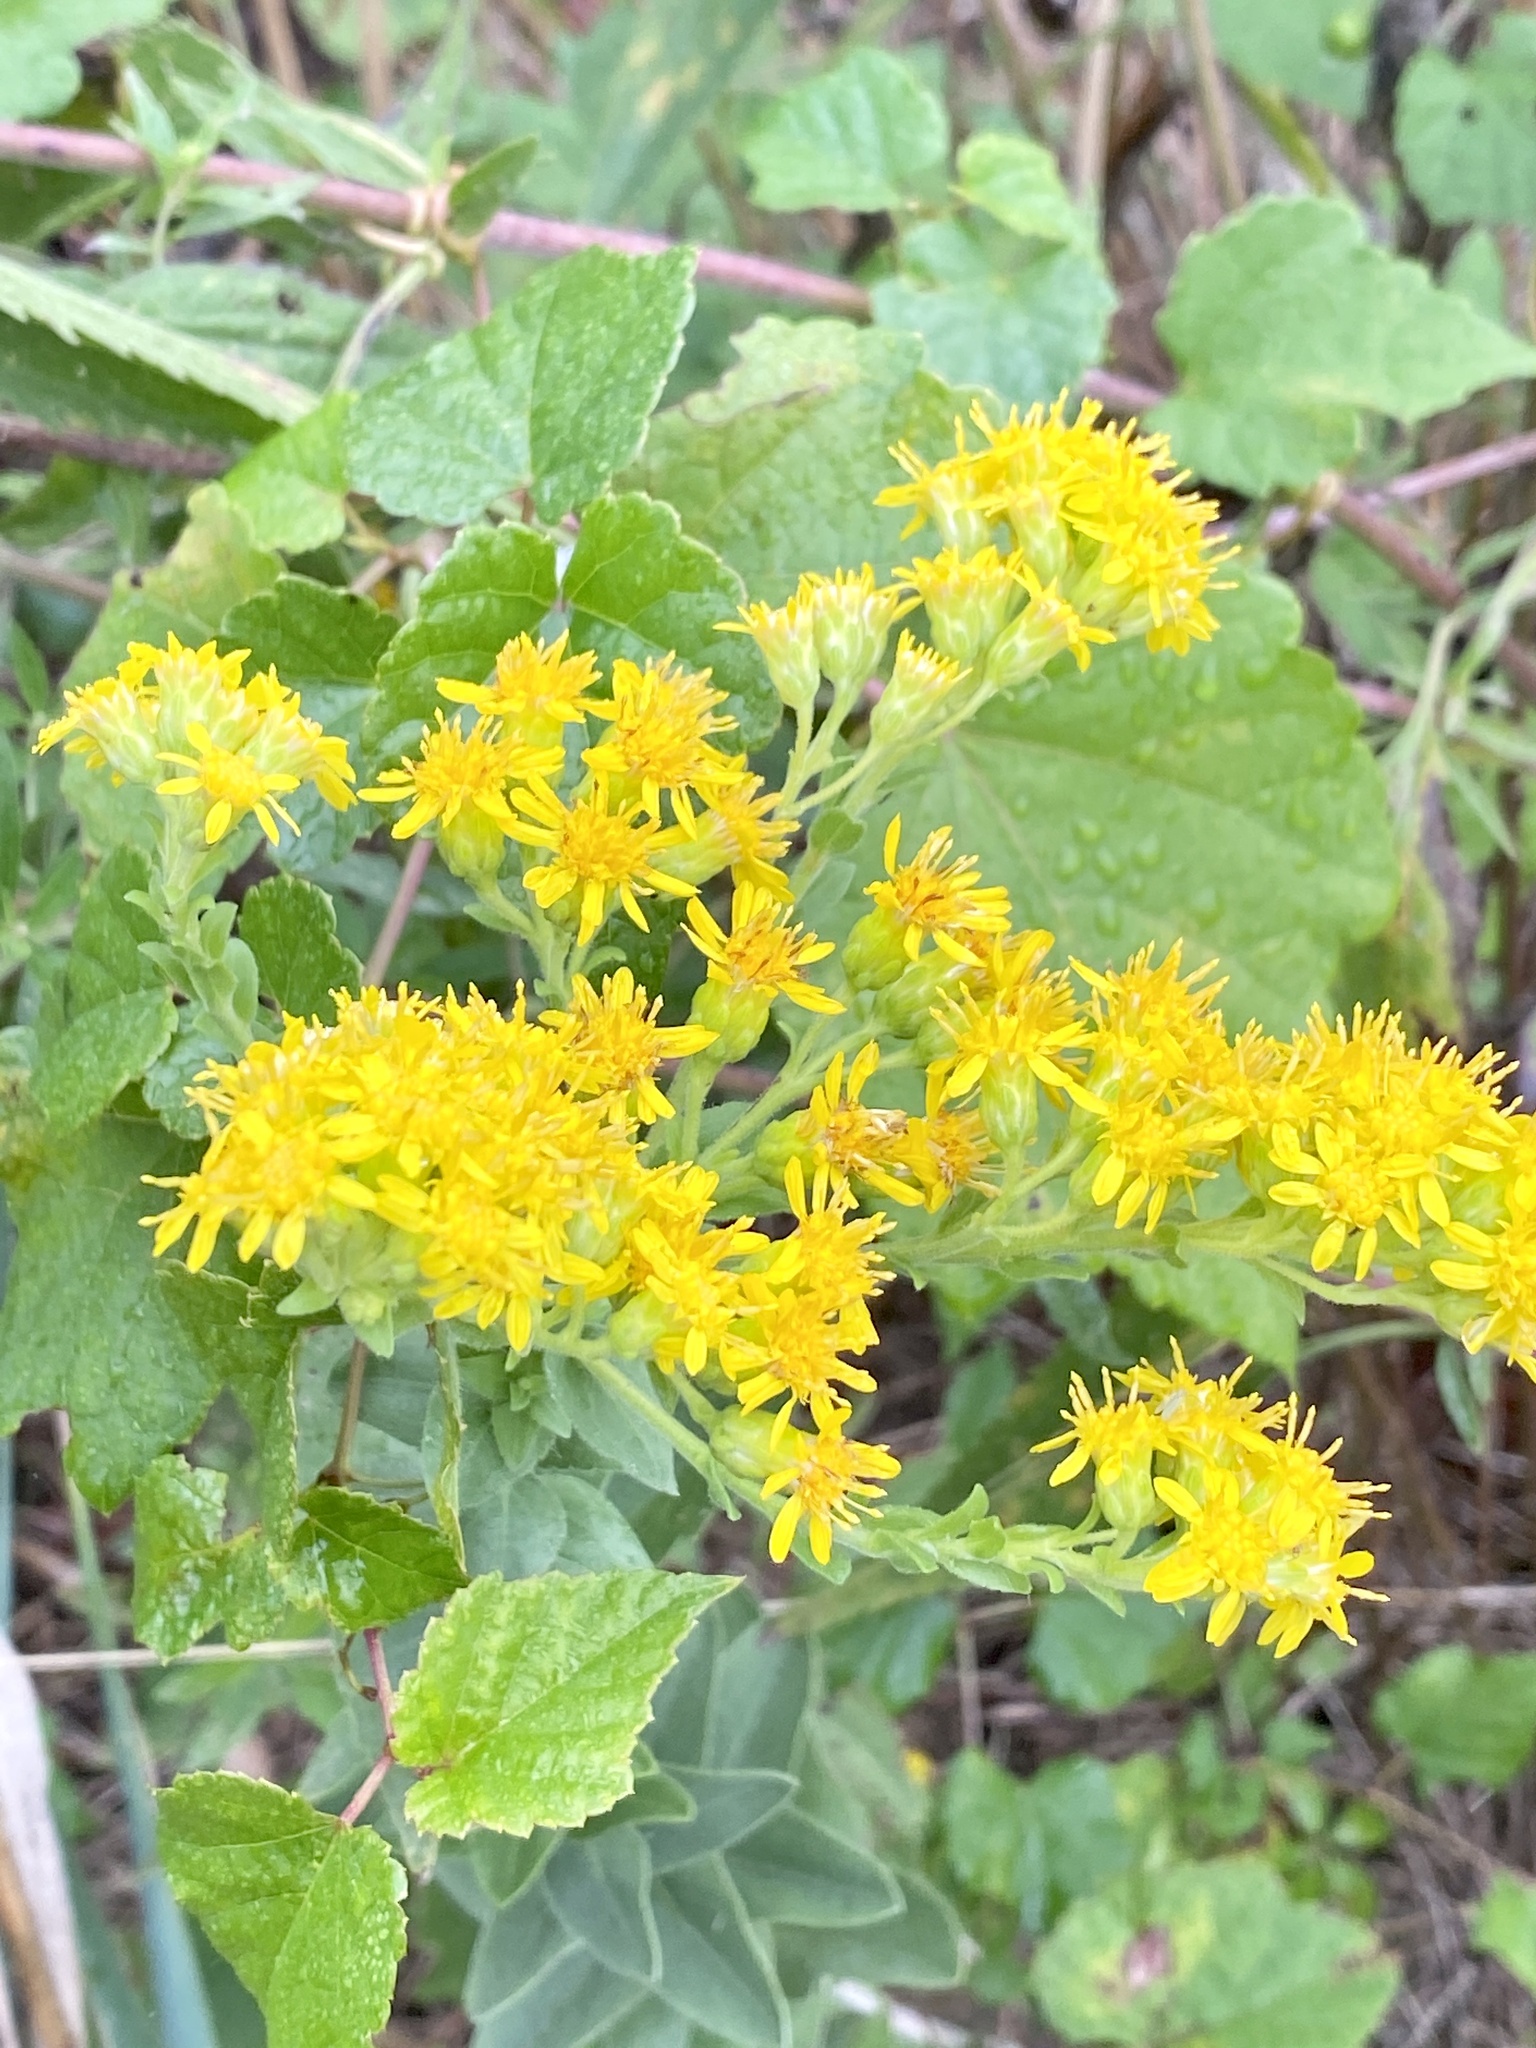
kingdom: Plantae
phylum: Tracheophyta
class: Magnoliopsida
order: Asterales
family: Asteraceae
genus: Solidago
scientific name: Solidago rigida
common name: Rigid goldenrod
